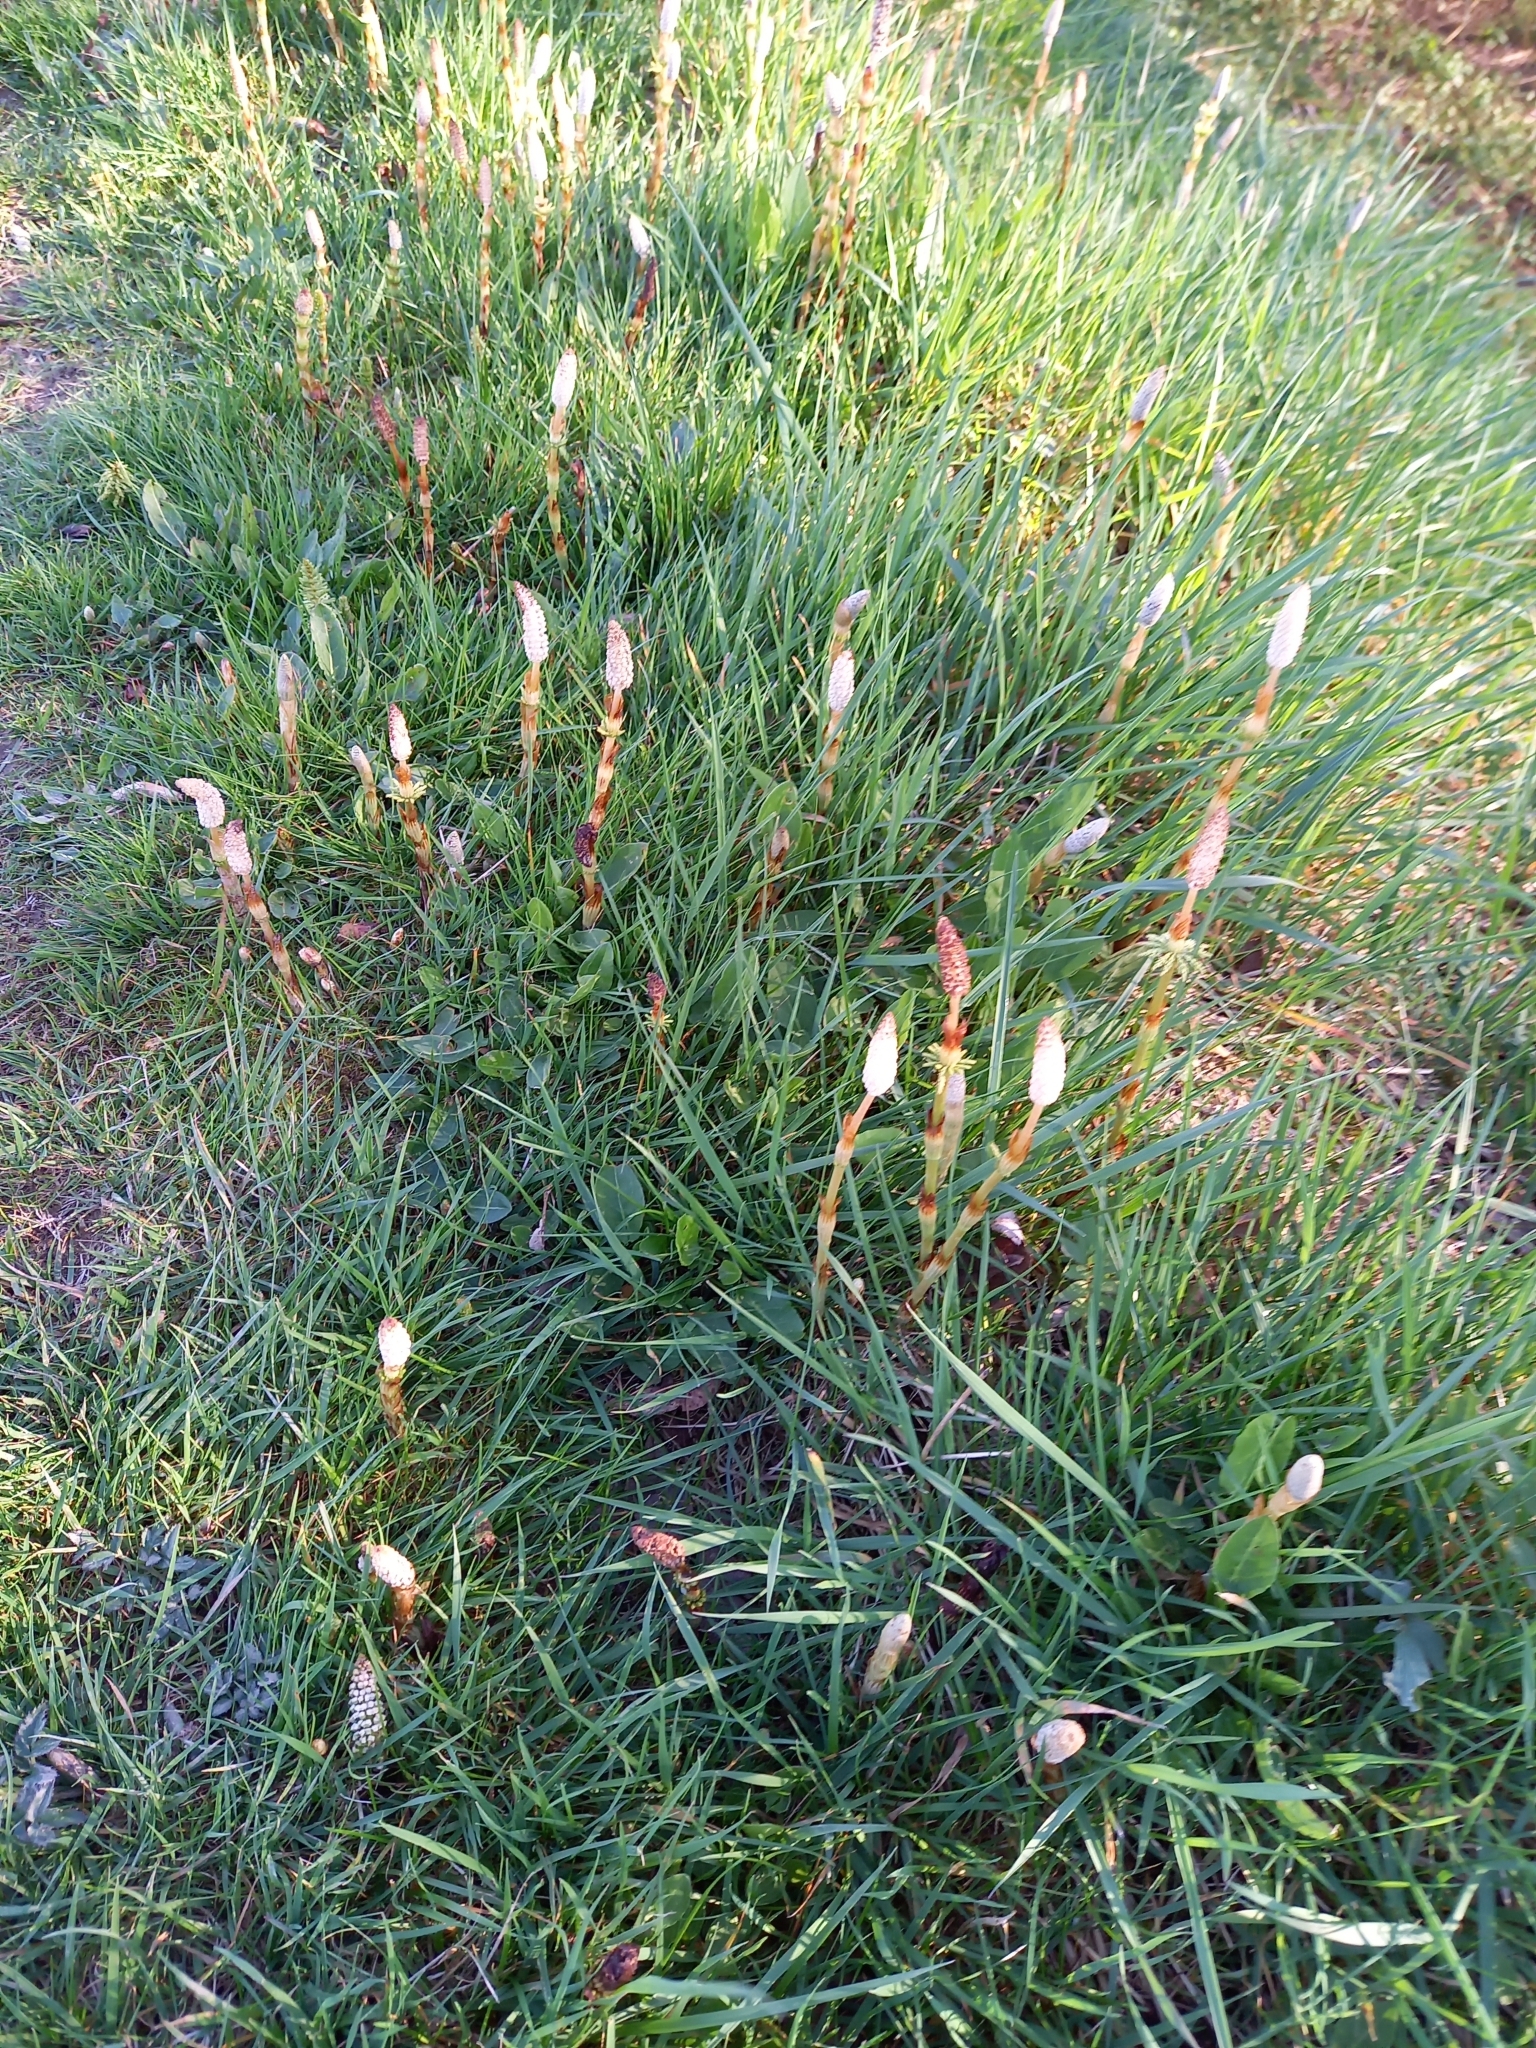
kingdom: Plantae
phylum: Tracheophyta
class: Polypodiopsida
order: Equisetales
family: Equisetaceae
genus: Equisetum
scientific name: Equisetum sylvaticum
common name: Wood horsetail
